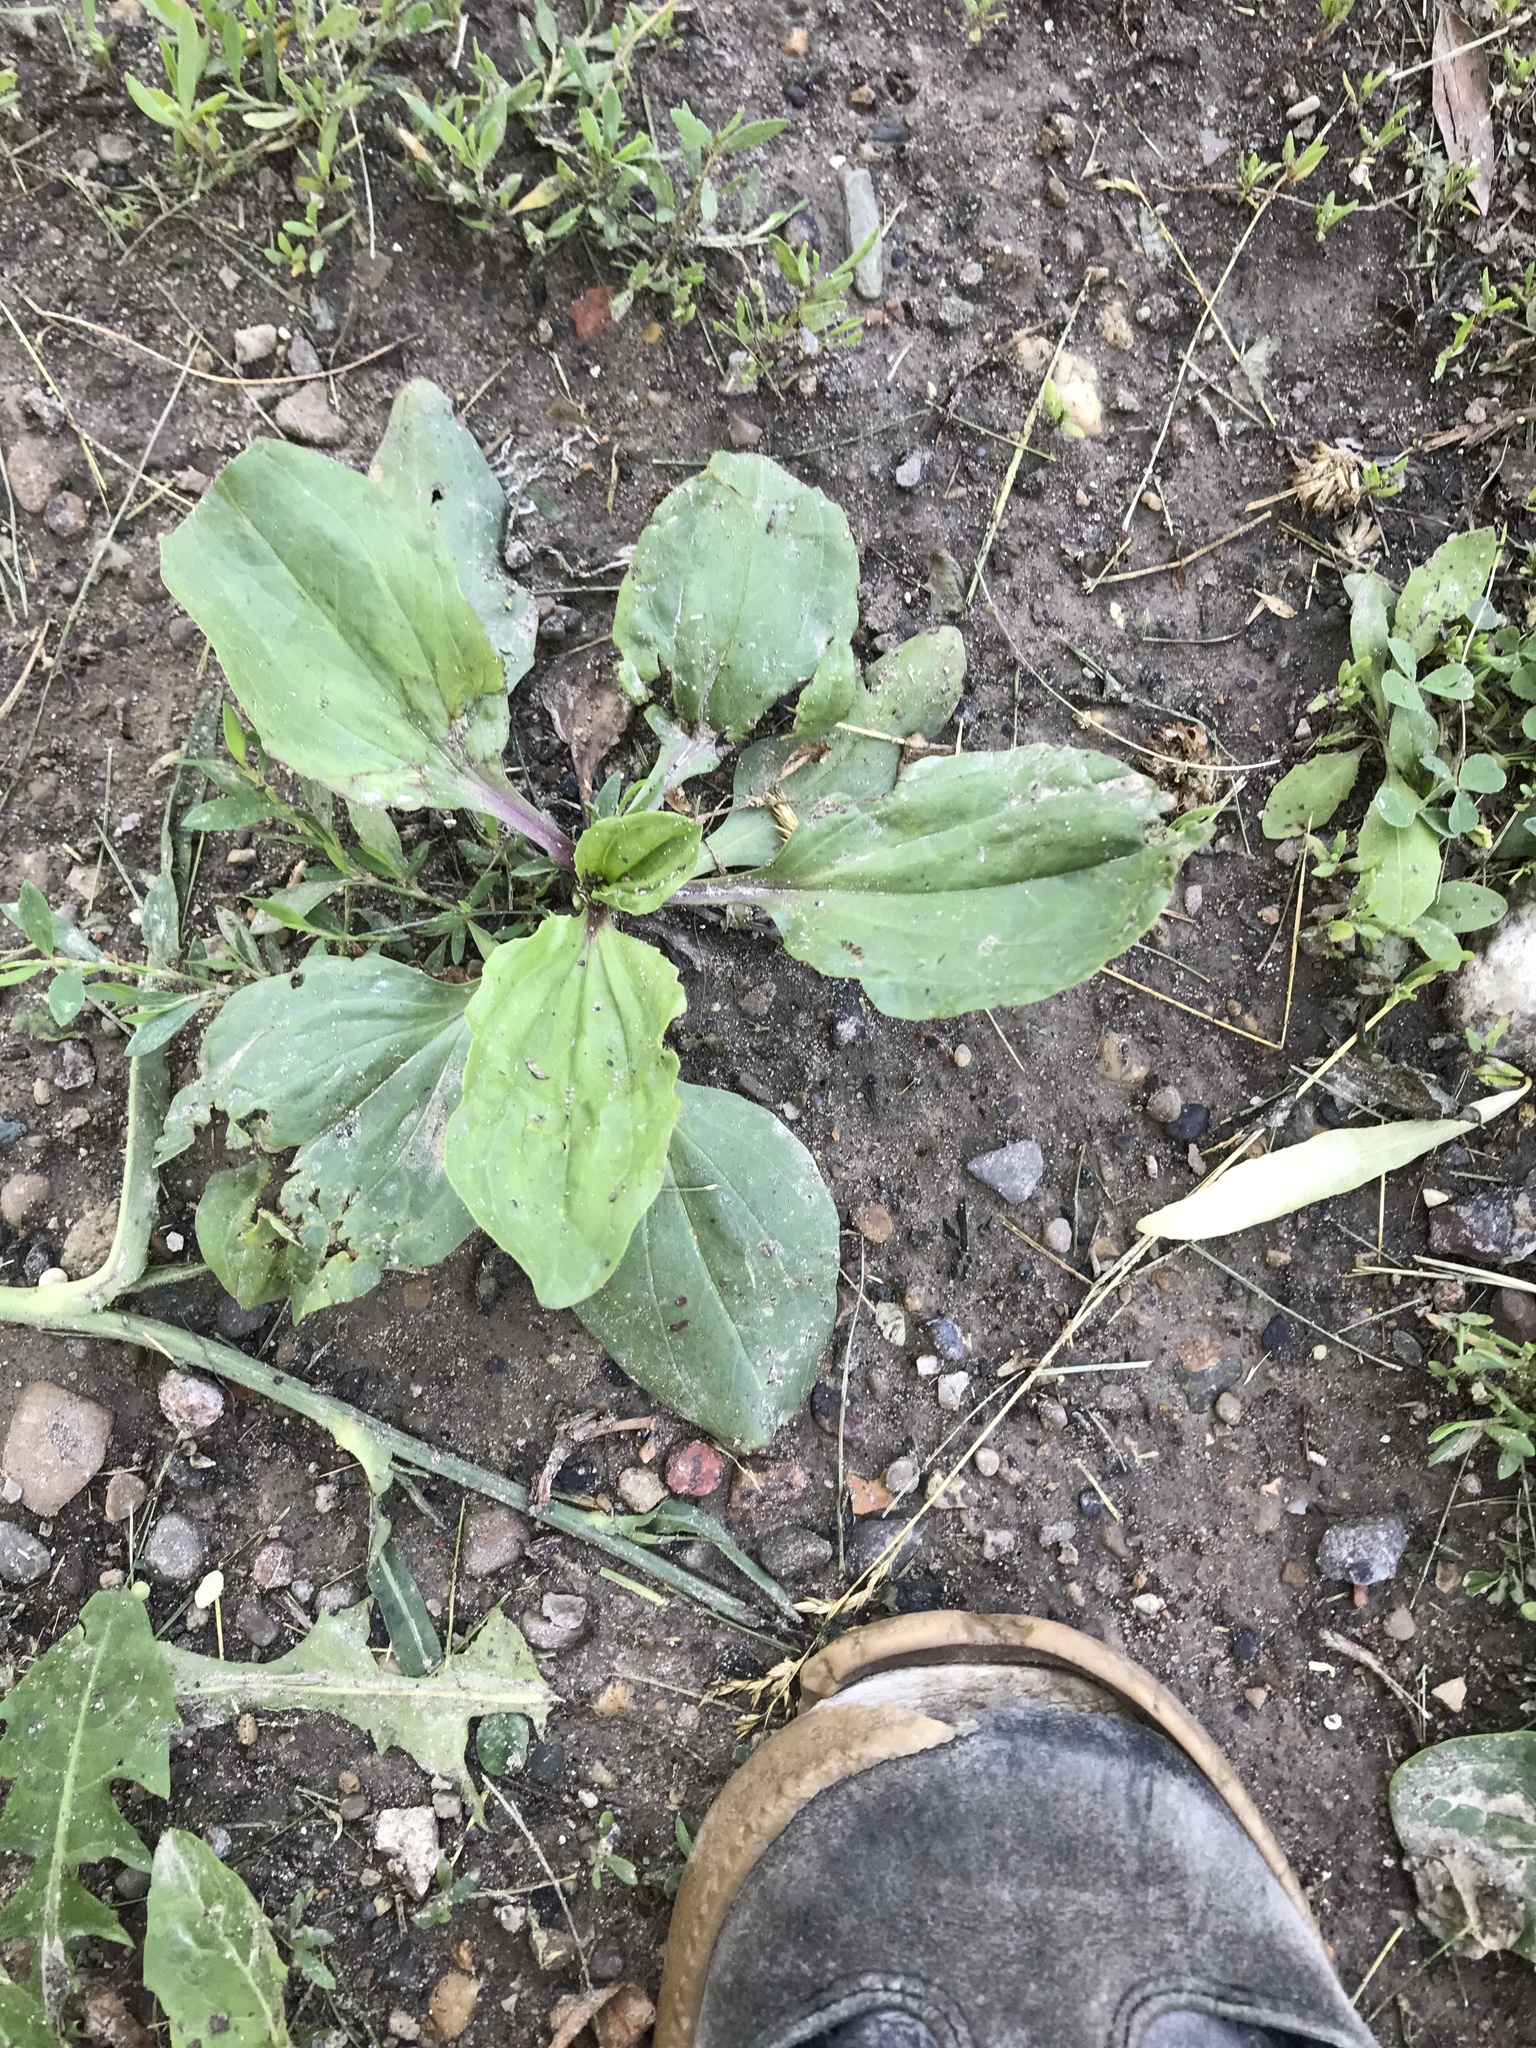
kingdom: Plantae
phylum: Tracheophyta
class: Magnoliopsida
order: Lamiales
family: Plantaginaceae
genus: Plantago
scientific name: Plantago rugelii
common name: American plantain
